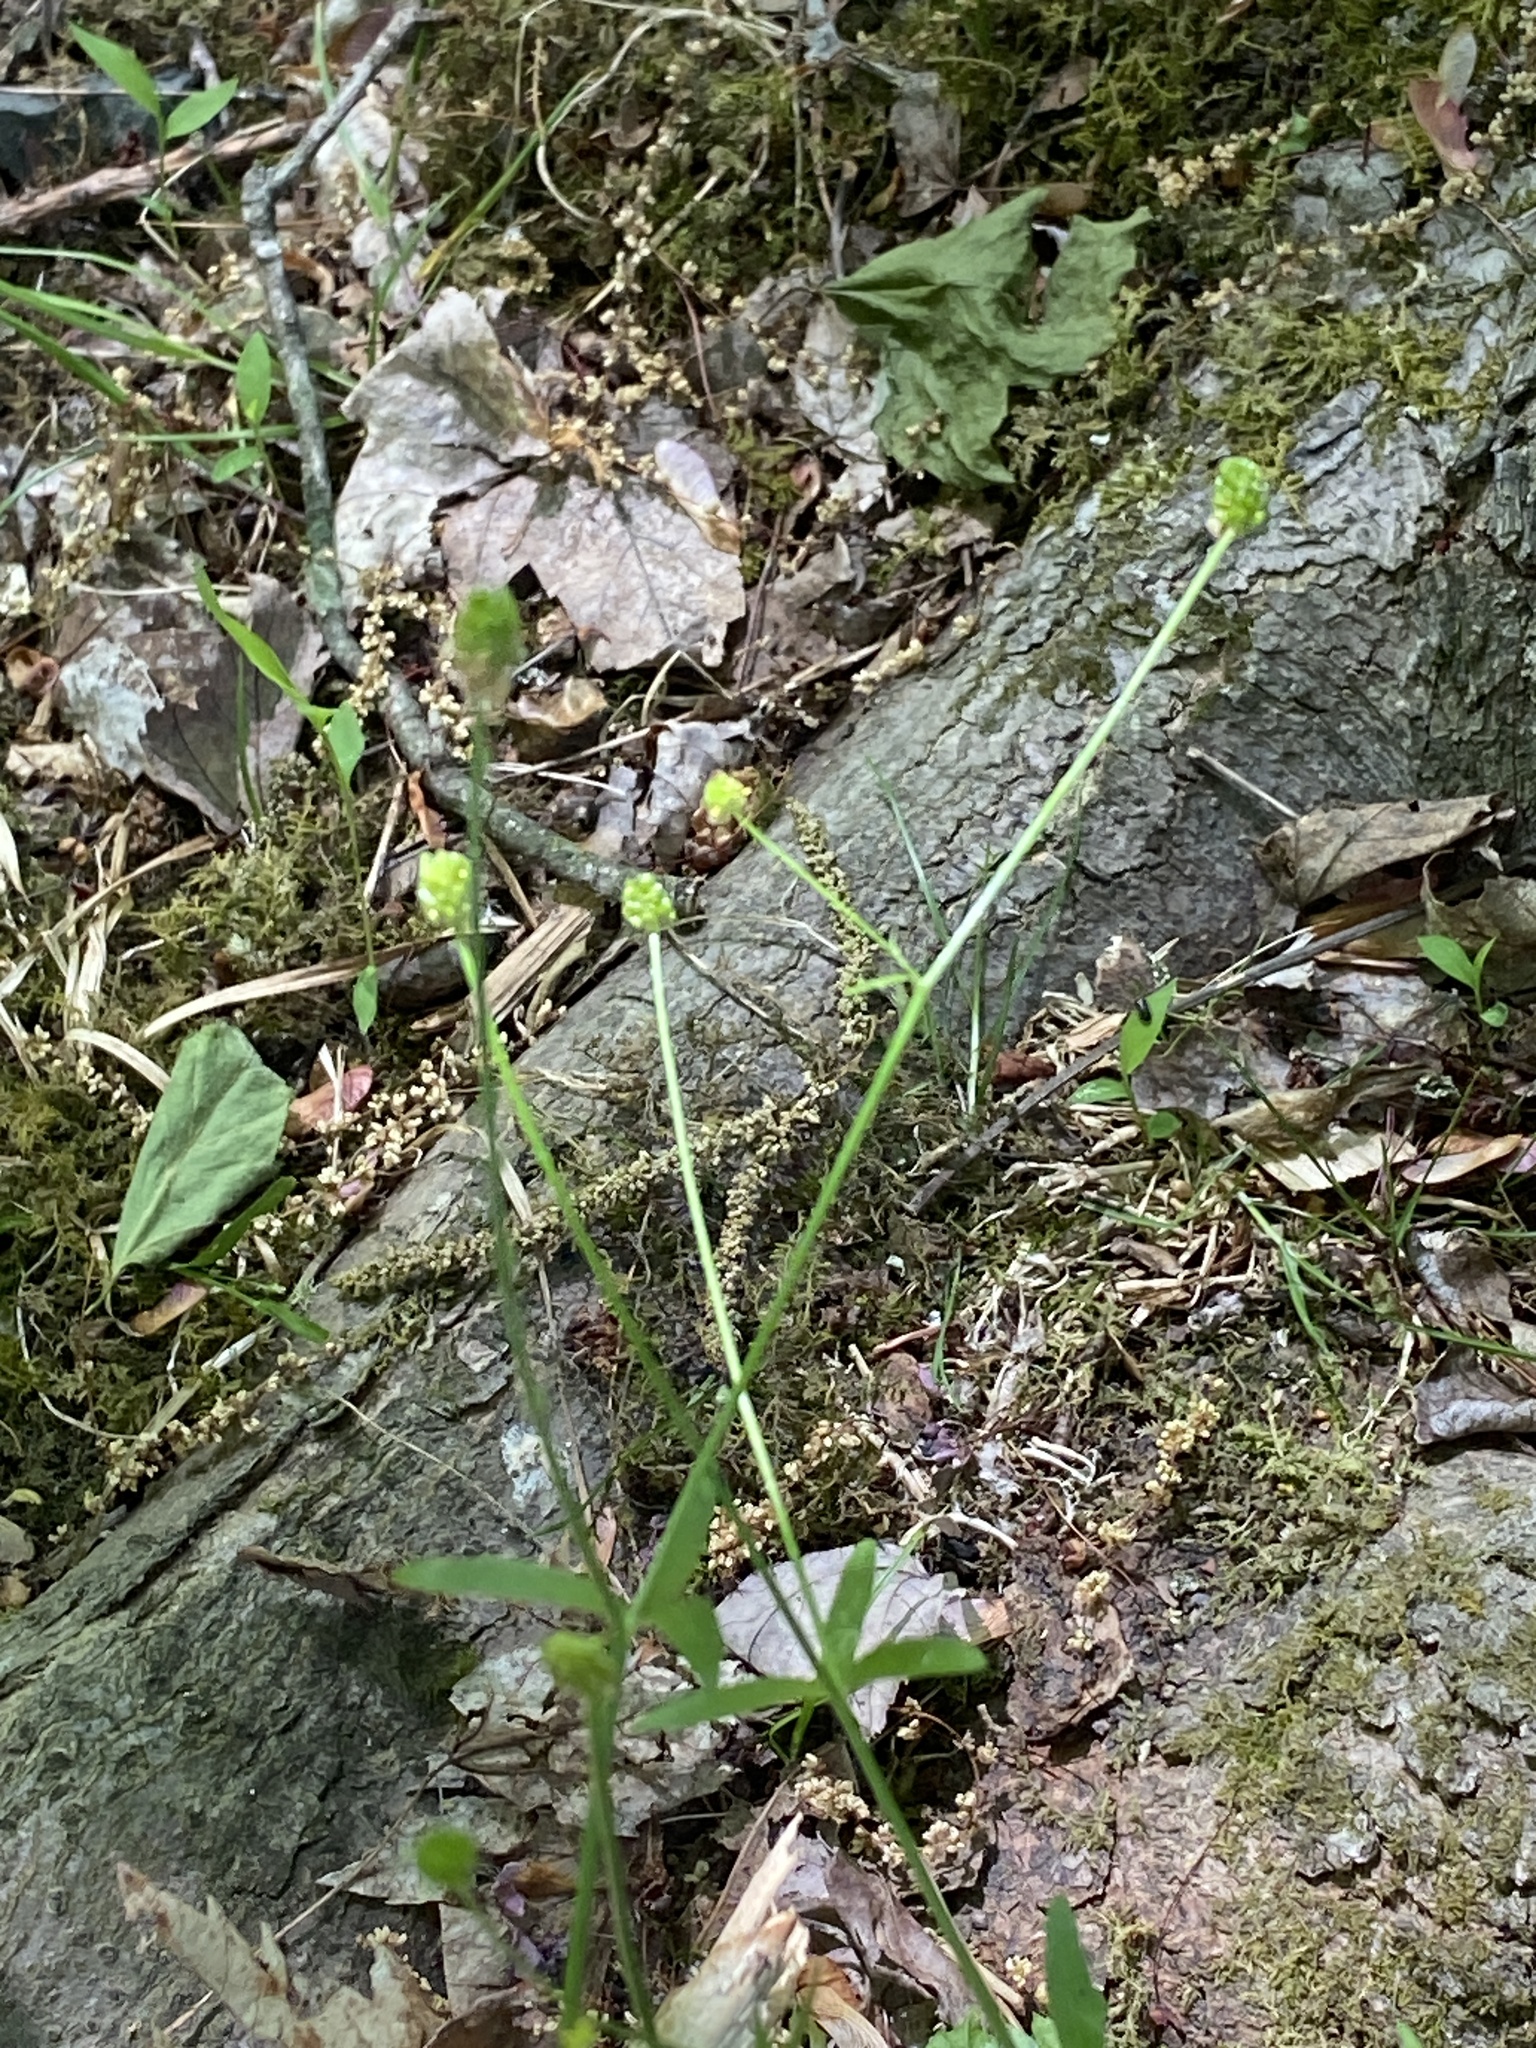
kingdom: Plantae
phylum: Tracheophyta
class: Magnoliopsida
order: Ranunculales
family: Ranunculaceae
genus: Ranunculus
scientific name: Ranunculus abortivus
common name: Early wood buttercup
